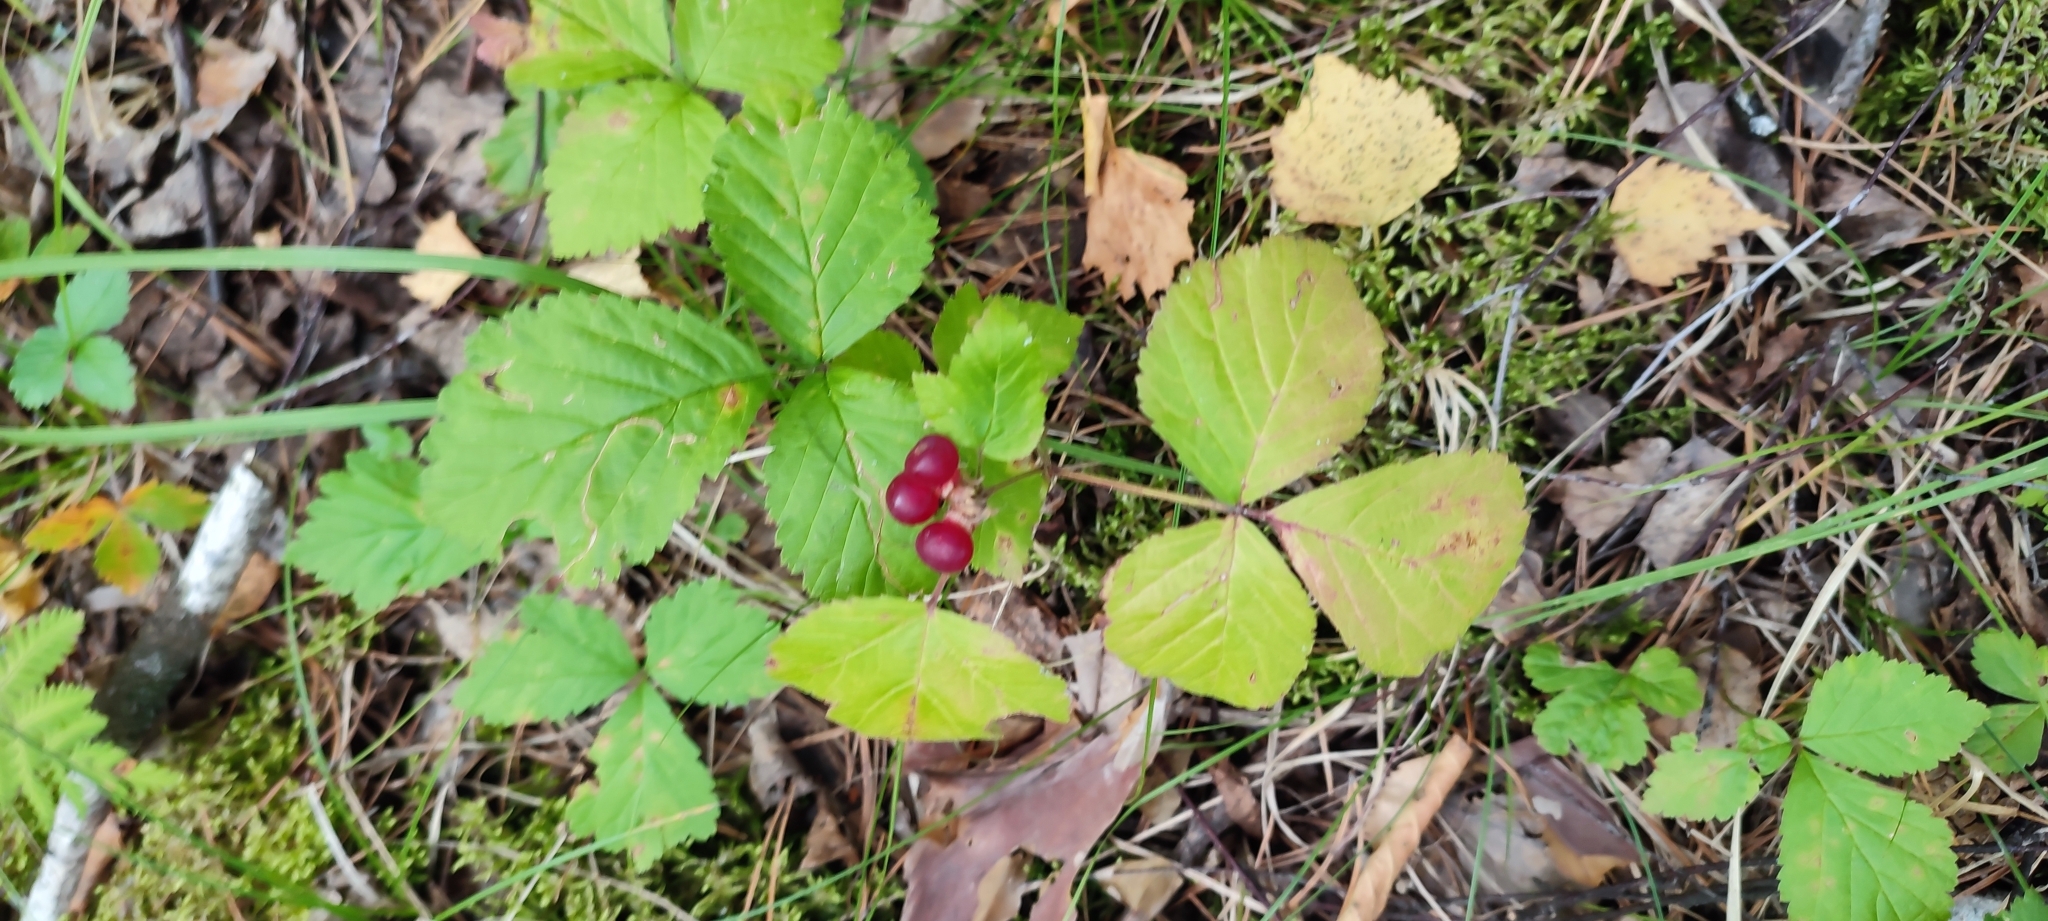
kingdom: Plantae
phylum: Tracheophyta
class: Magnoliopsida
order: Rosales
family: Rosaceae
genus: Rubus
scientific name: Rubus saxatilis
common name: Stone bramble
